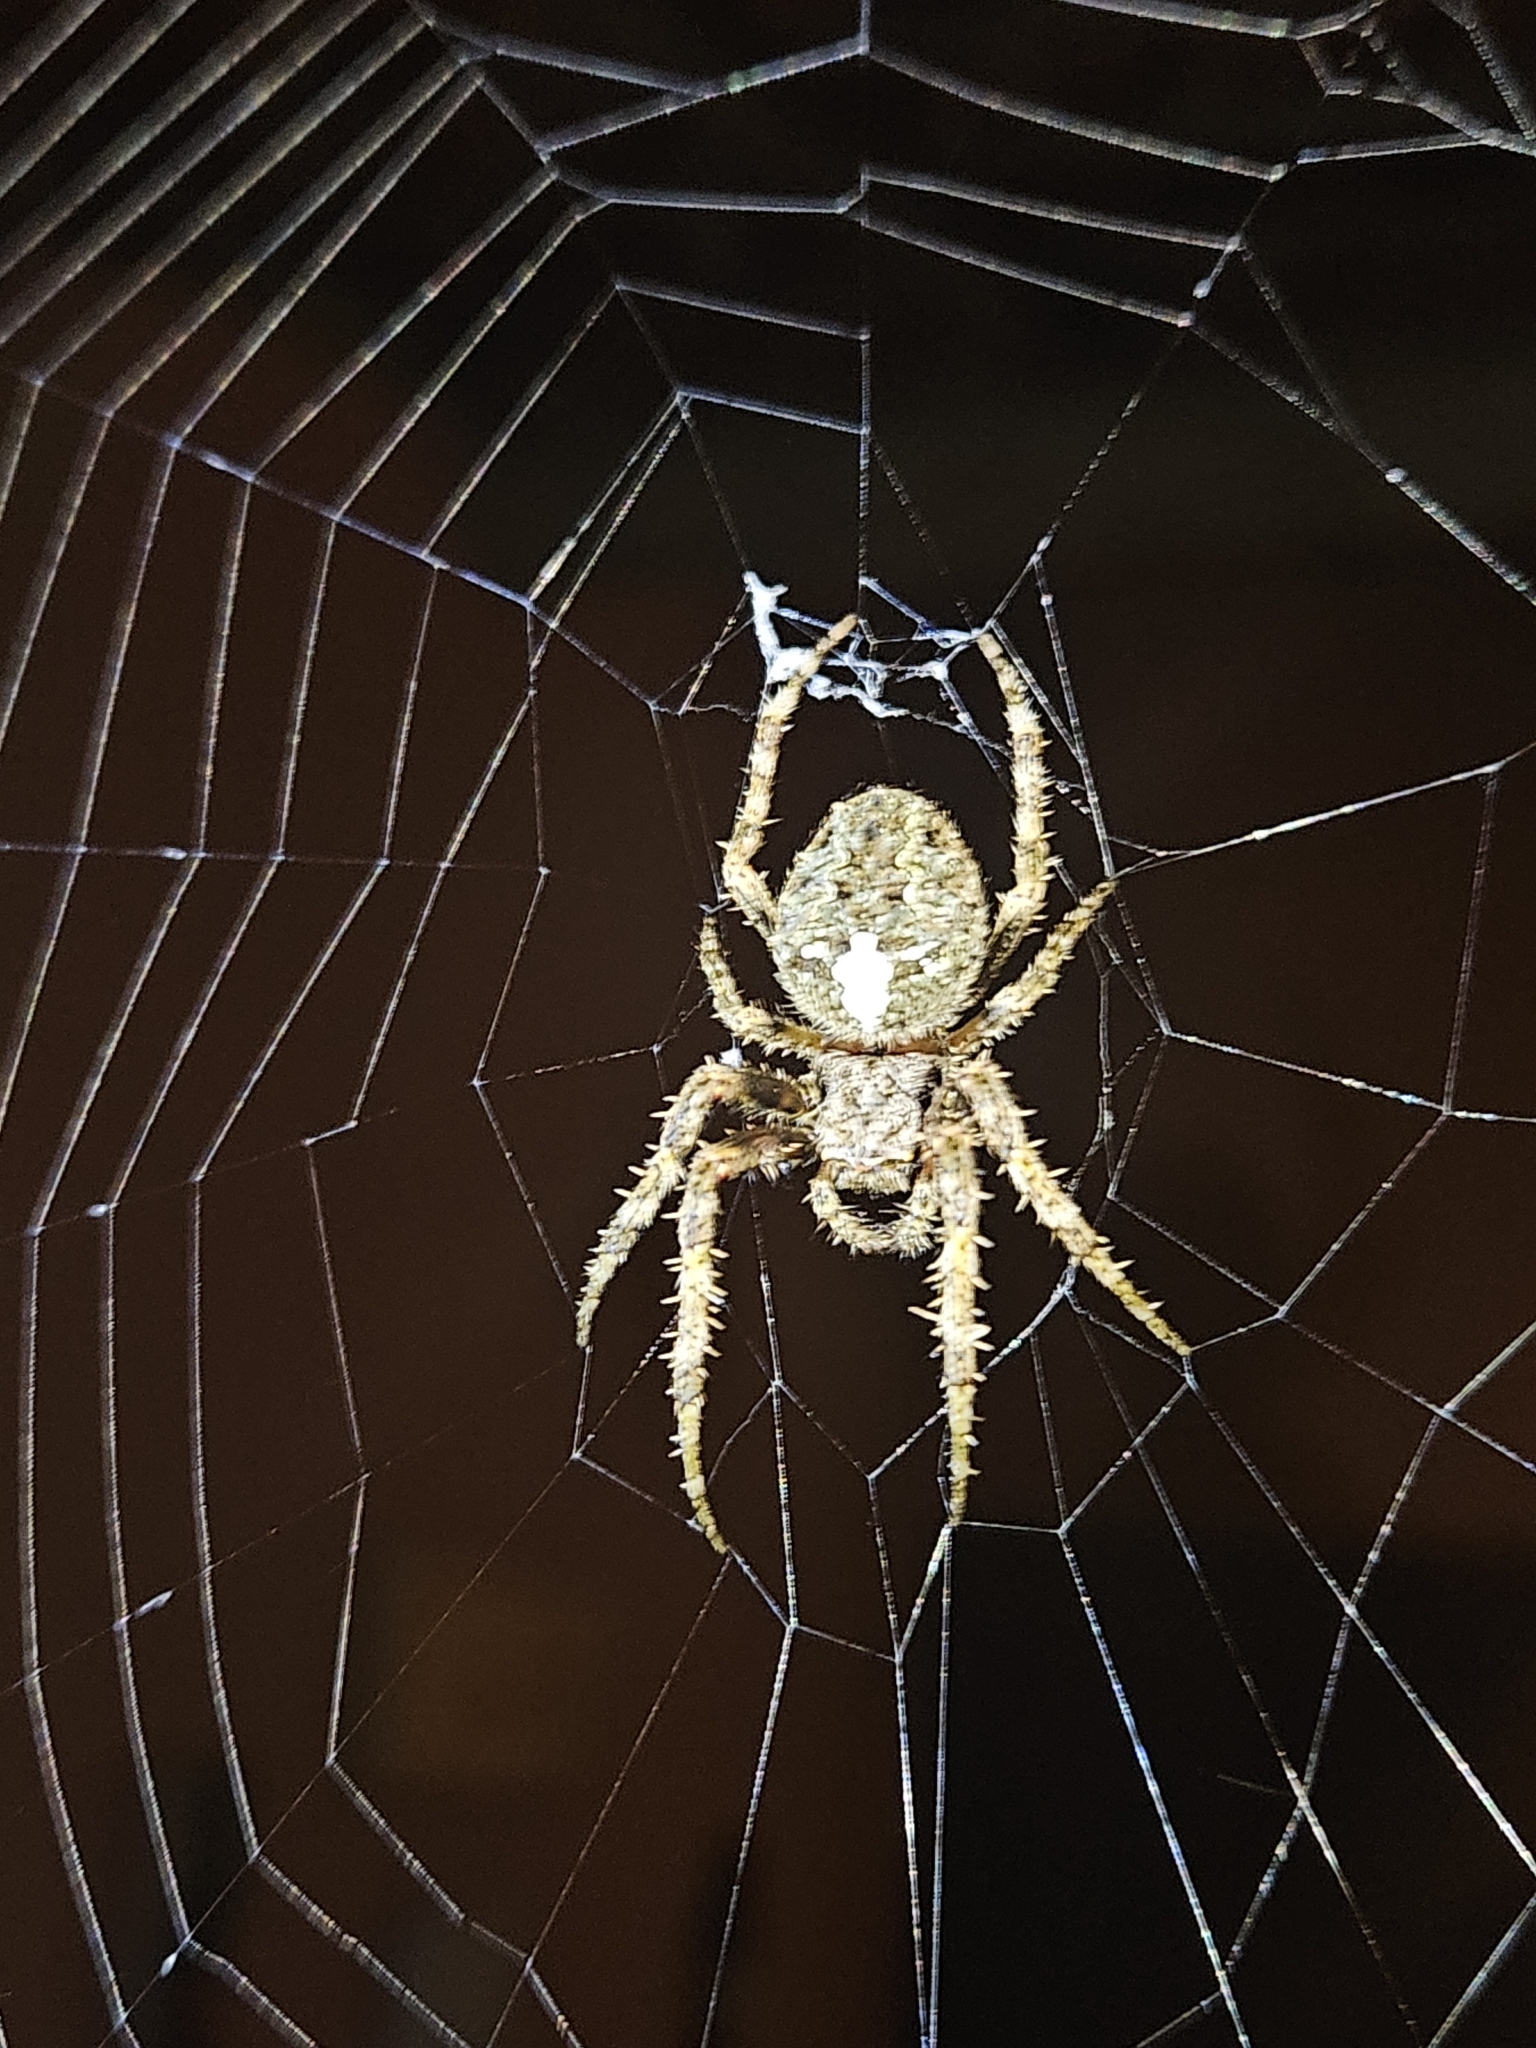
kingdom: Animalia
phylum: Arthropoda
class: Arachnida
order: Araneae
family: Araneidae
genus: Parawixia
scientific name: Parawixia audax
